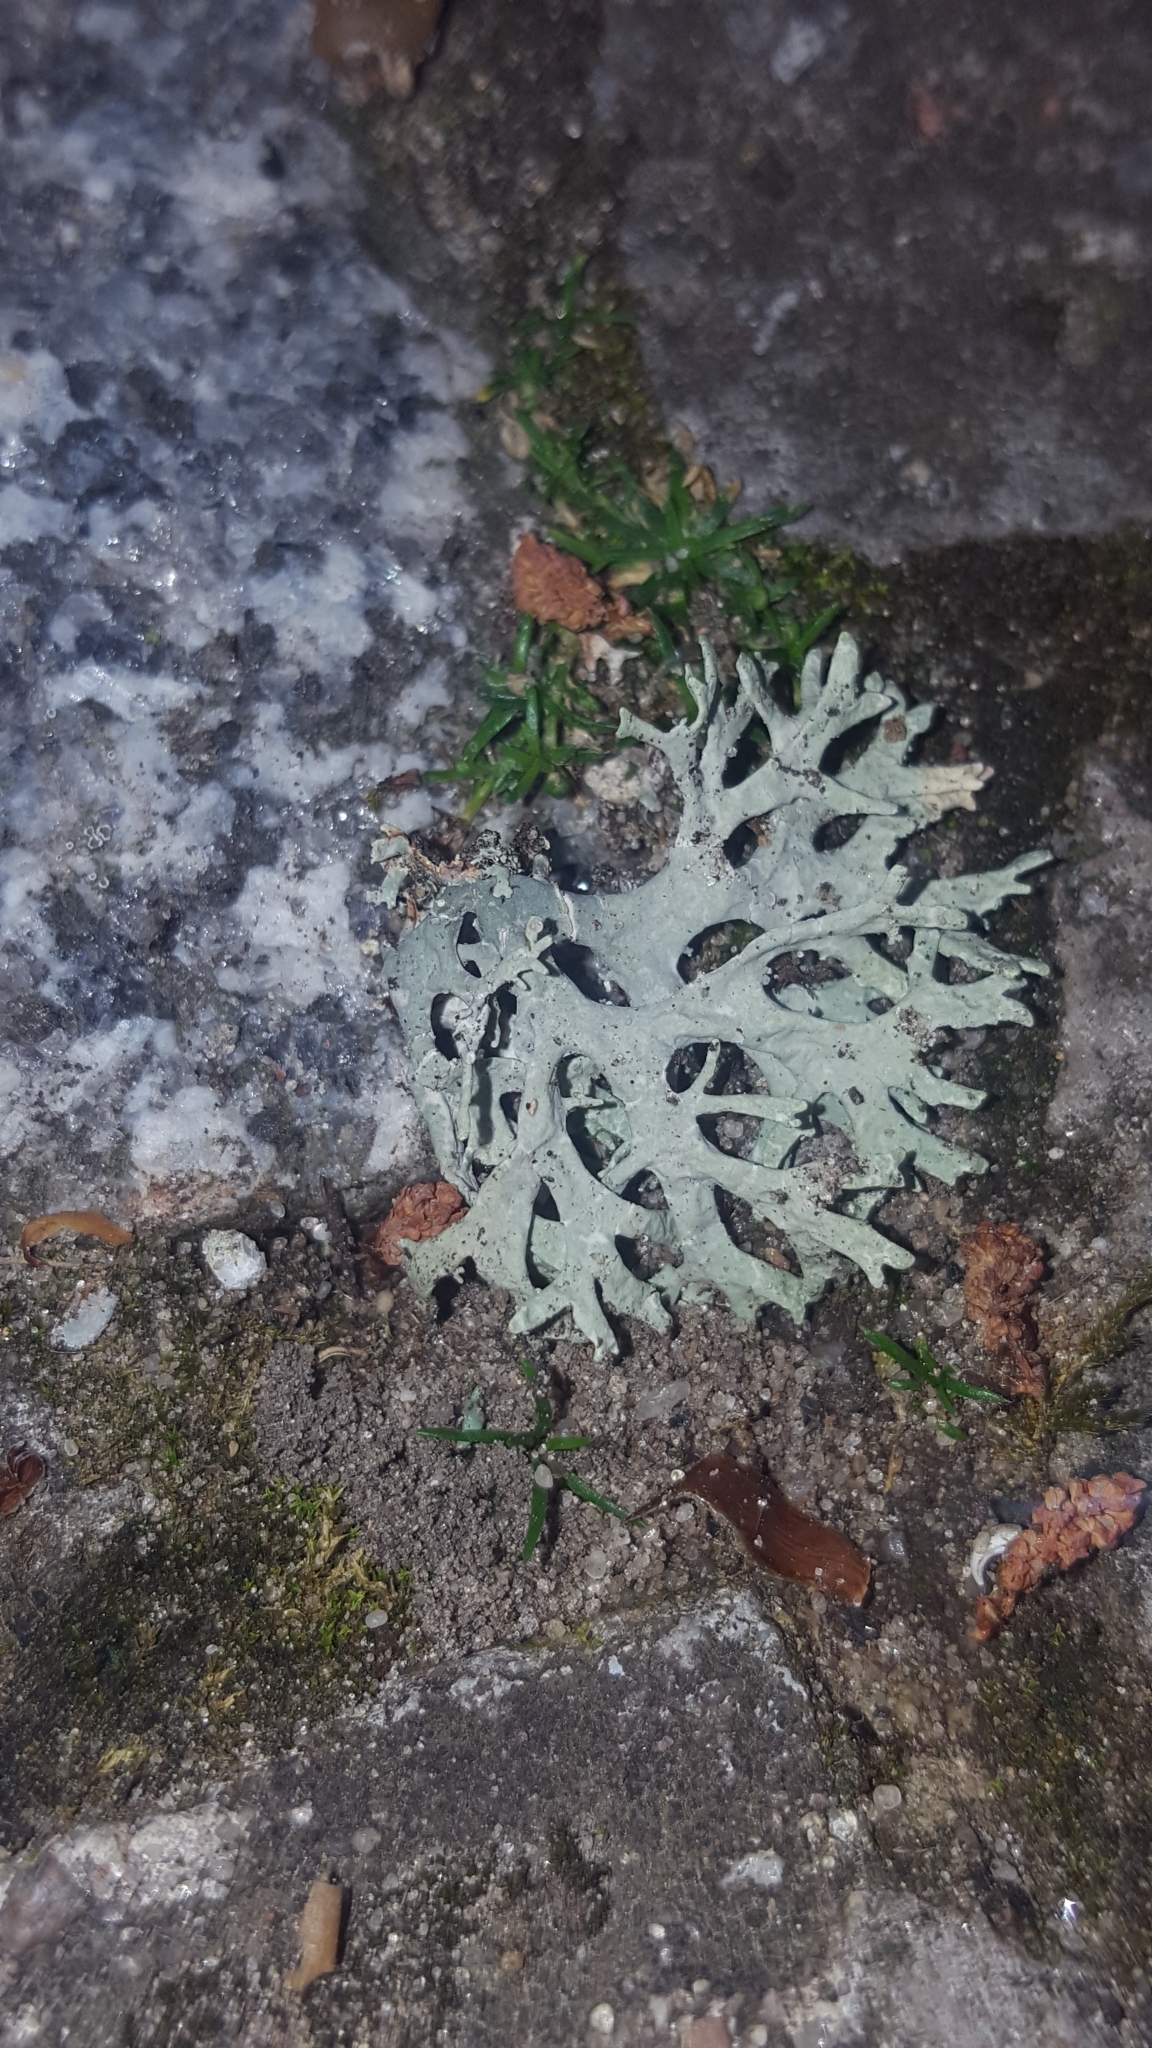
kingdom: Fungi
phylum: Ascomycota
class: Lecanoromycetes
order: Lecanorales
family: Parmeliaceae
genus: Evernia
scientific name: Evernia prunastri
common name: Oak moss
